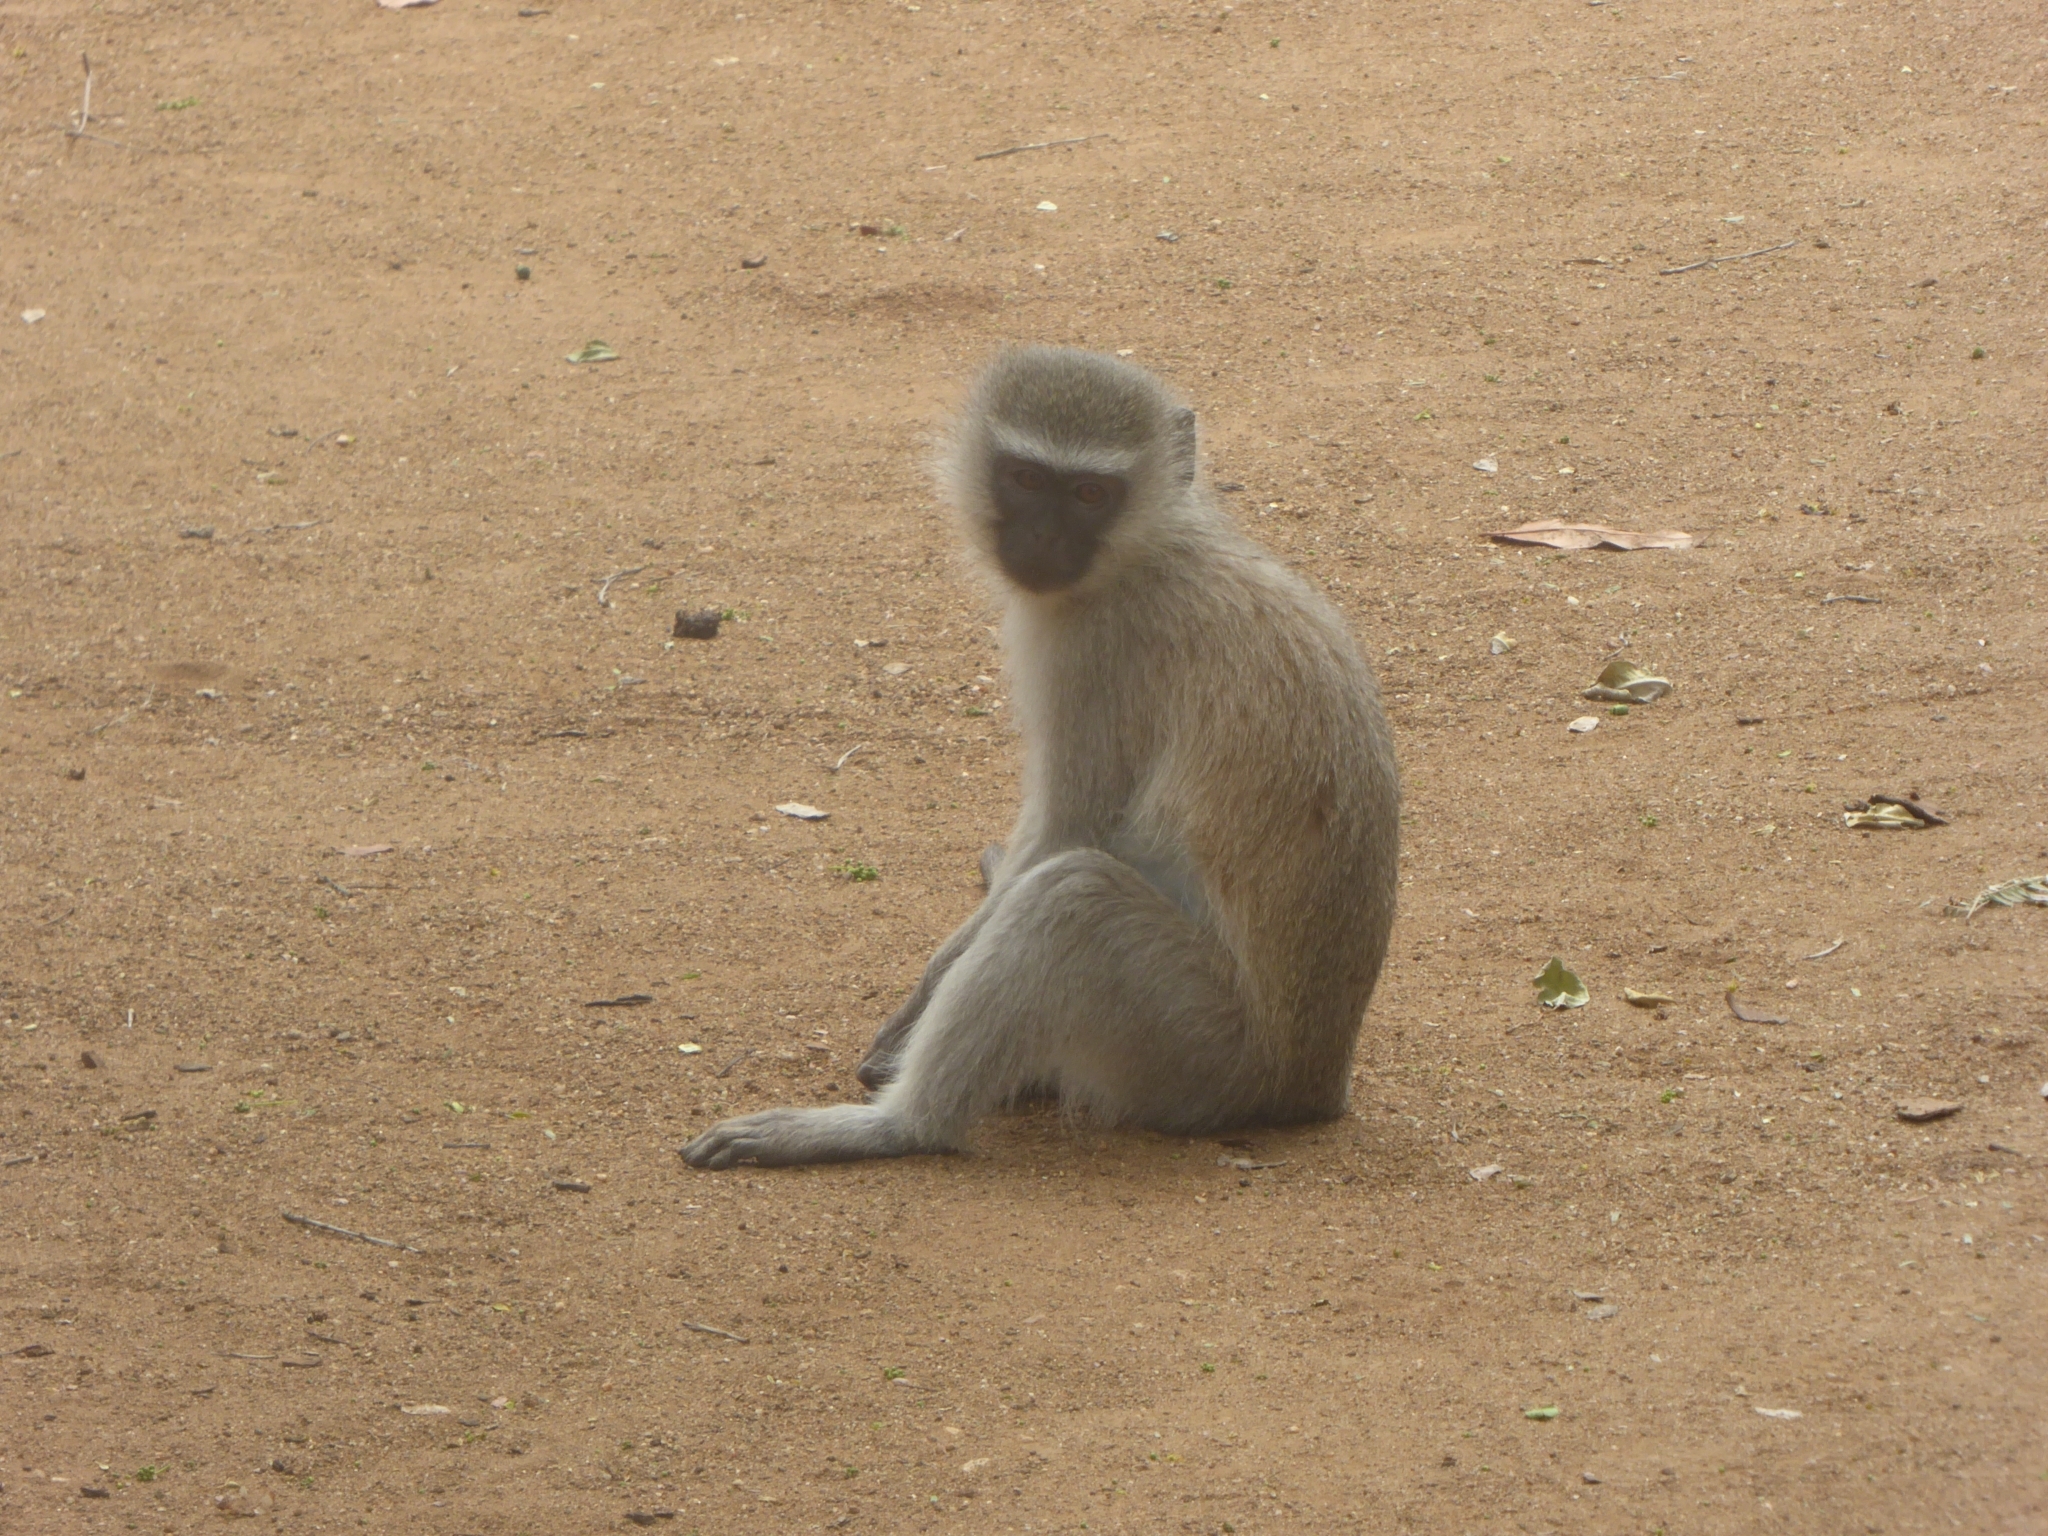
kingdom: Animalia
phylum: Chordata
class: Mammalia
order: Primates
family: Cercopithecidae
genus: Chlorocebus
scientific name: Chlorocebus pygerythrus
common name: Vervet monkey
